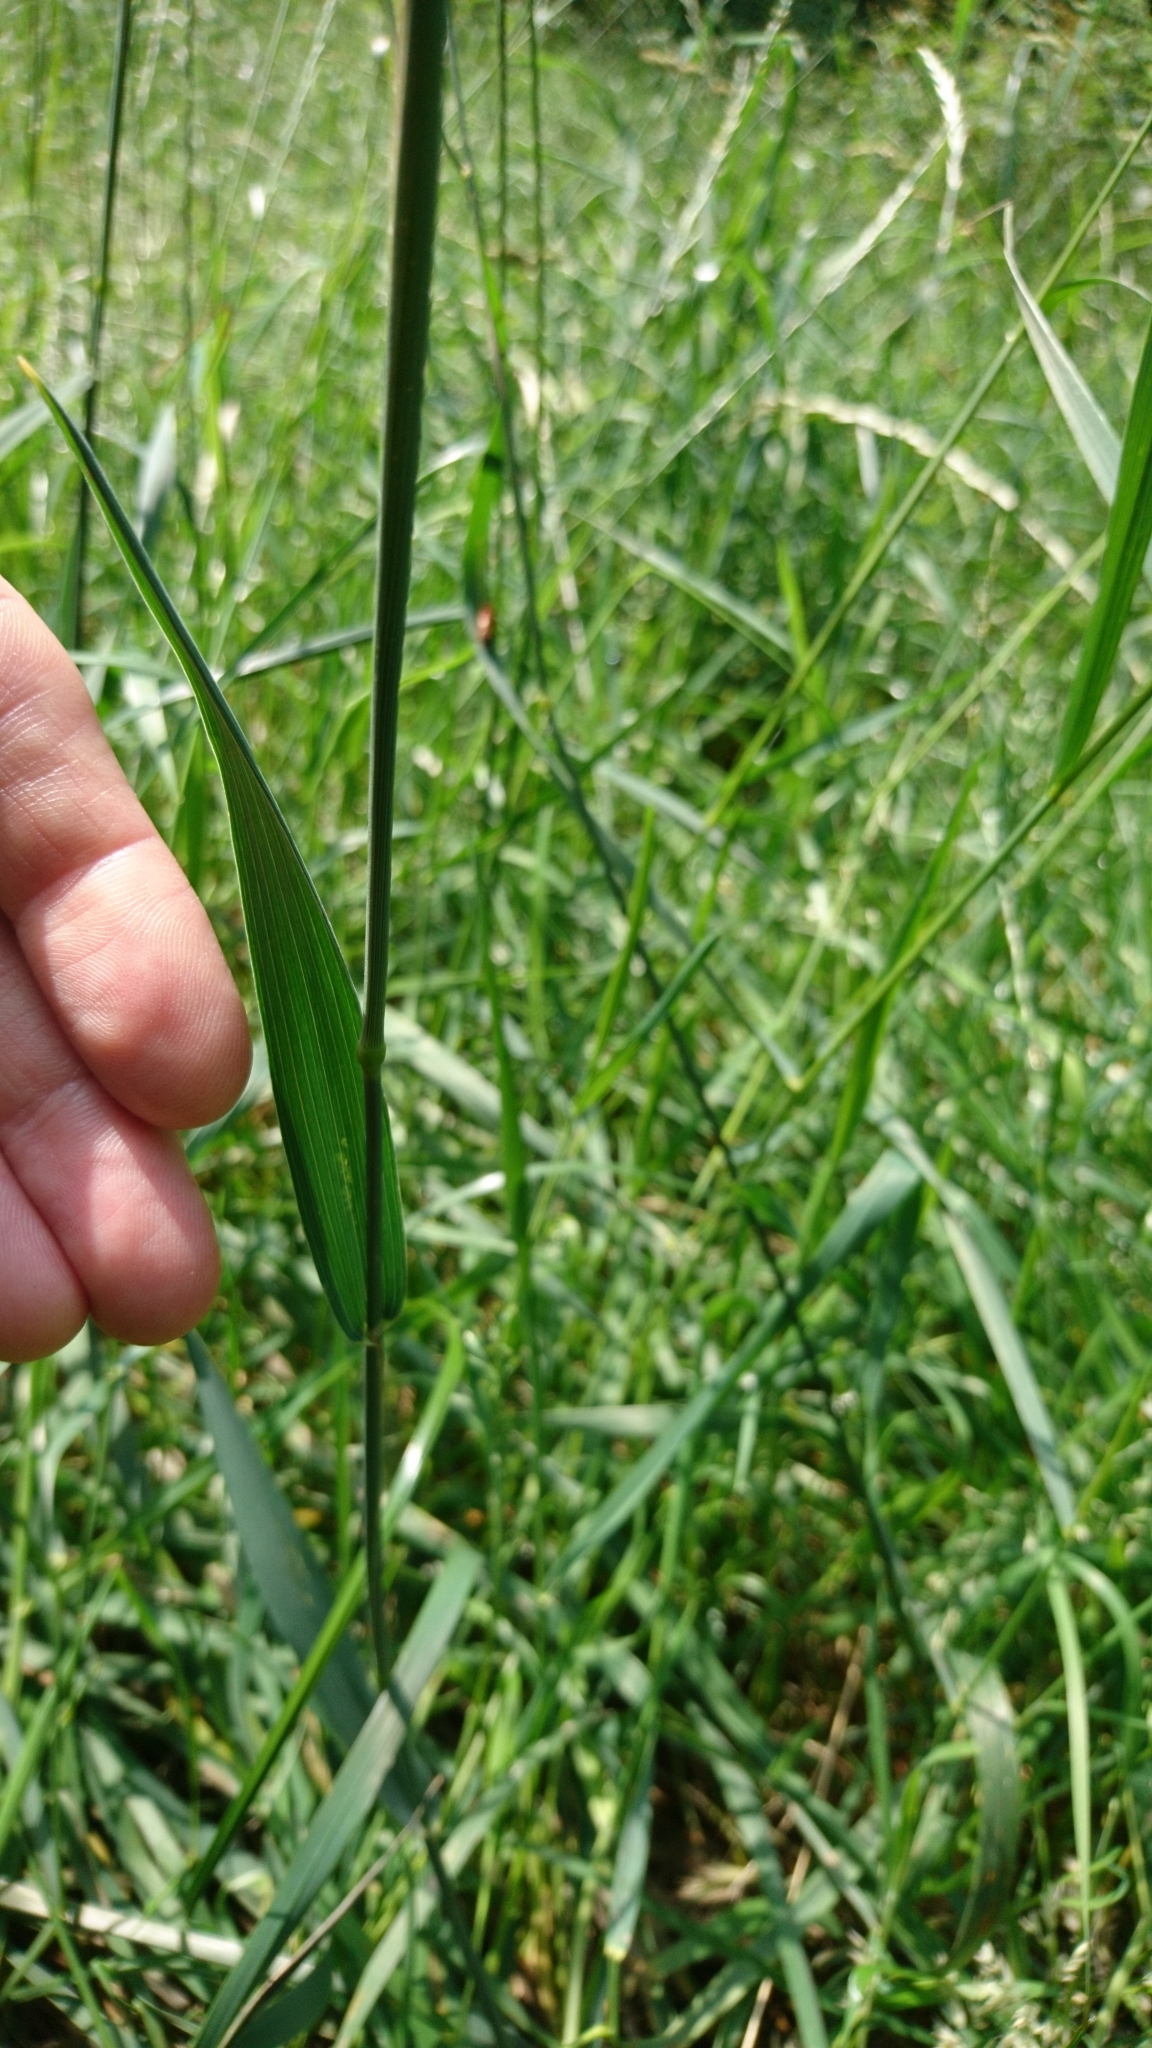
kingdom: Plantae
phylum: Tracheophyta
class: Liliopsida
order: Poales
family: Poaceae
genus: Phleum
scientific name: Phleum pratense
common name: Timothy grass
